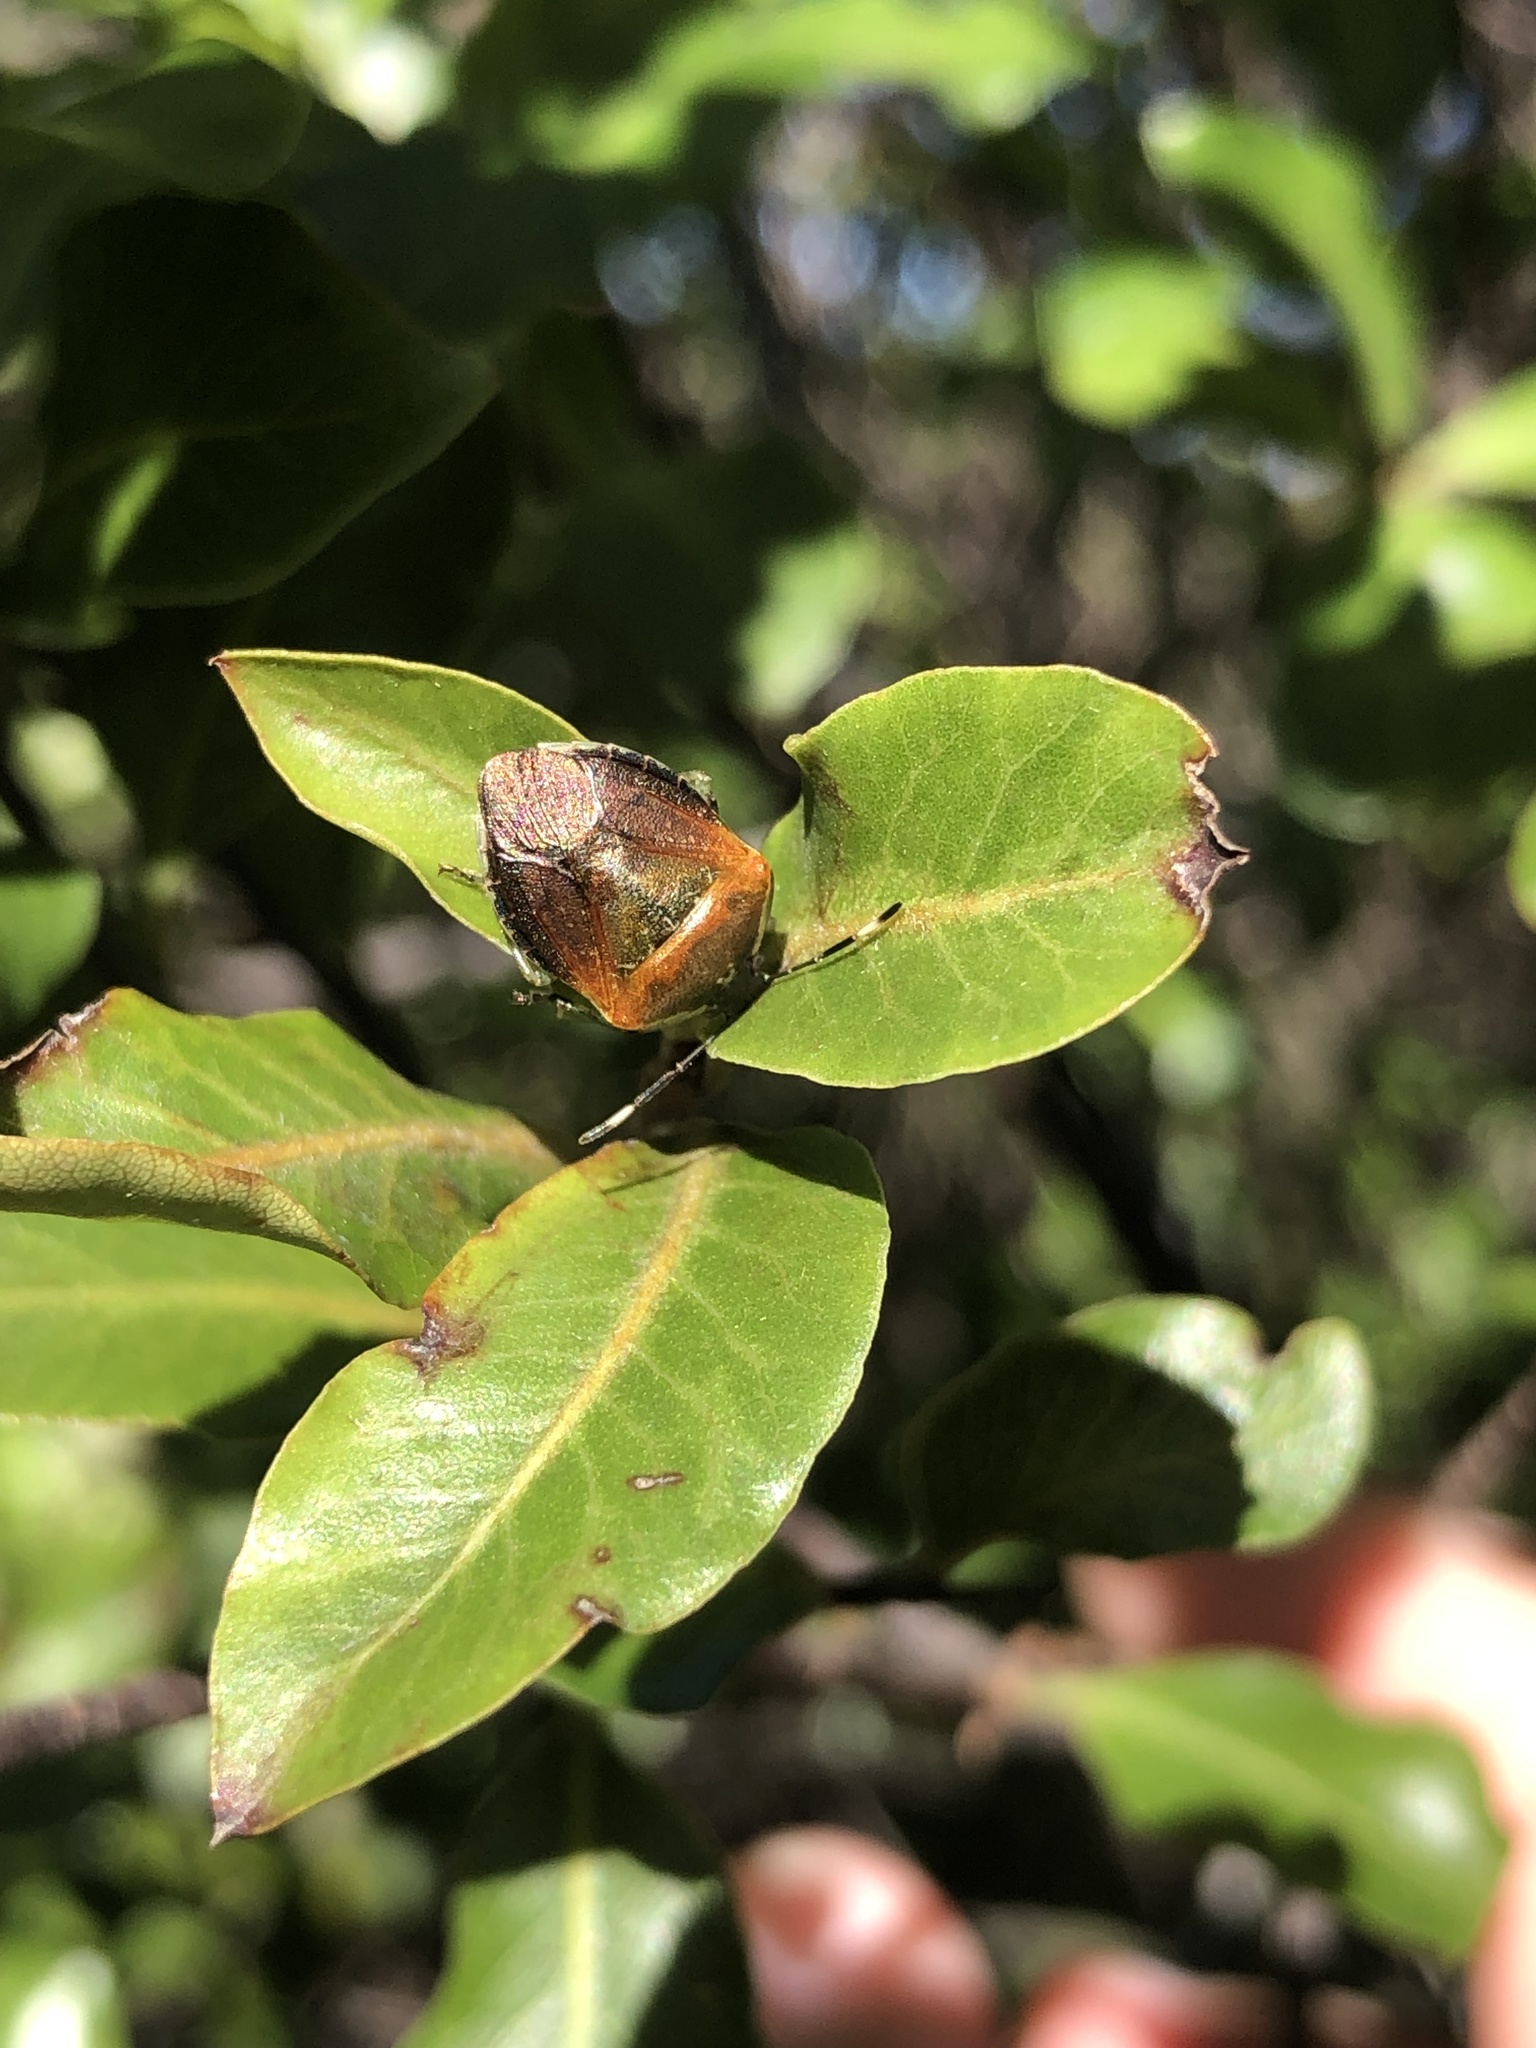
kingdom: Animalia
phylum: Arthropoda
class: Insecta
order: Hemiptera
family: Pentatomidae
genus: Monteithiella
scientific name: Monteithiella
